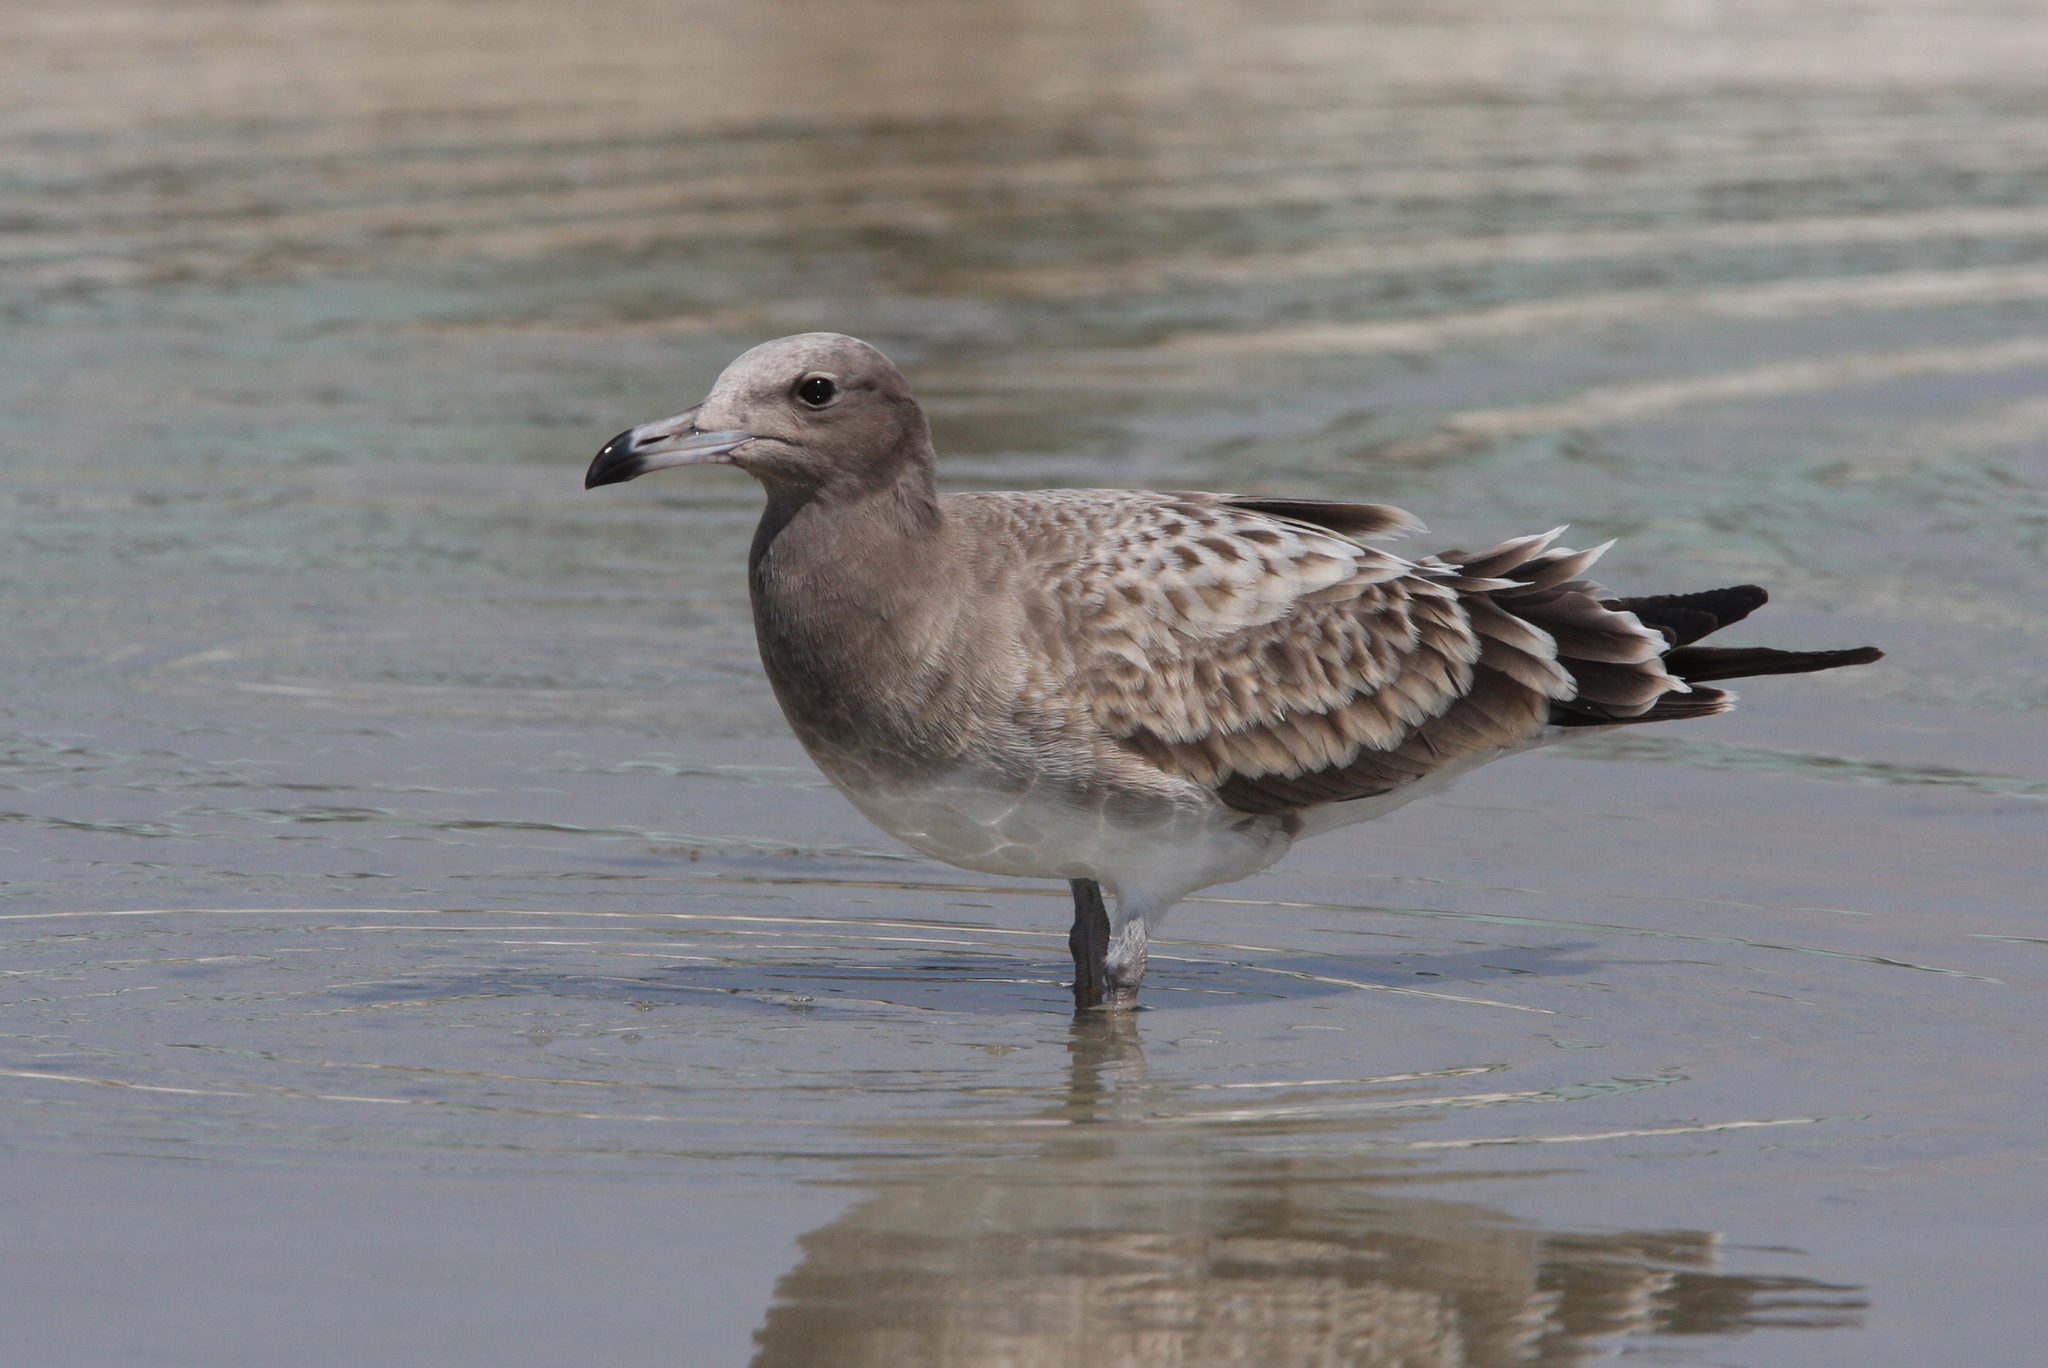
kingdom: Animalia
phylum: Chordata
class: Aves
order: Charadriiformes
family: Laridae
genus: Ichthyaetus
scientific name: Ichthyaetus hemprichii
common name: Sooty gull
